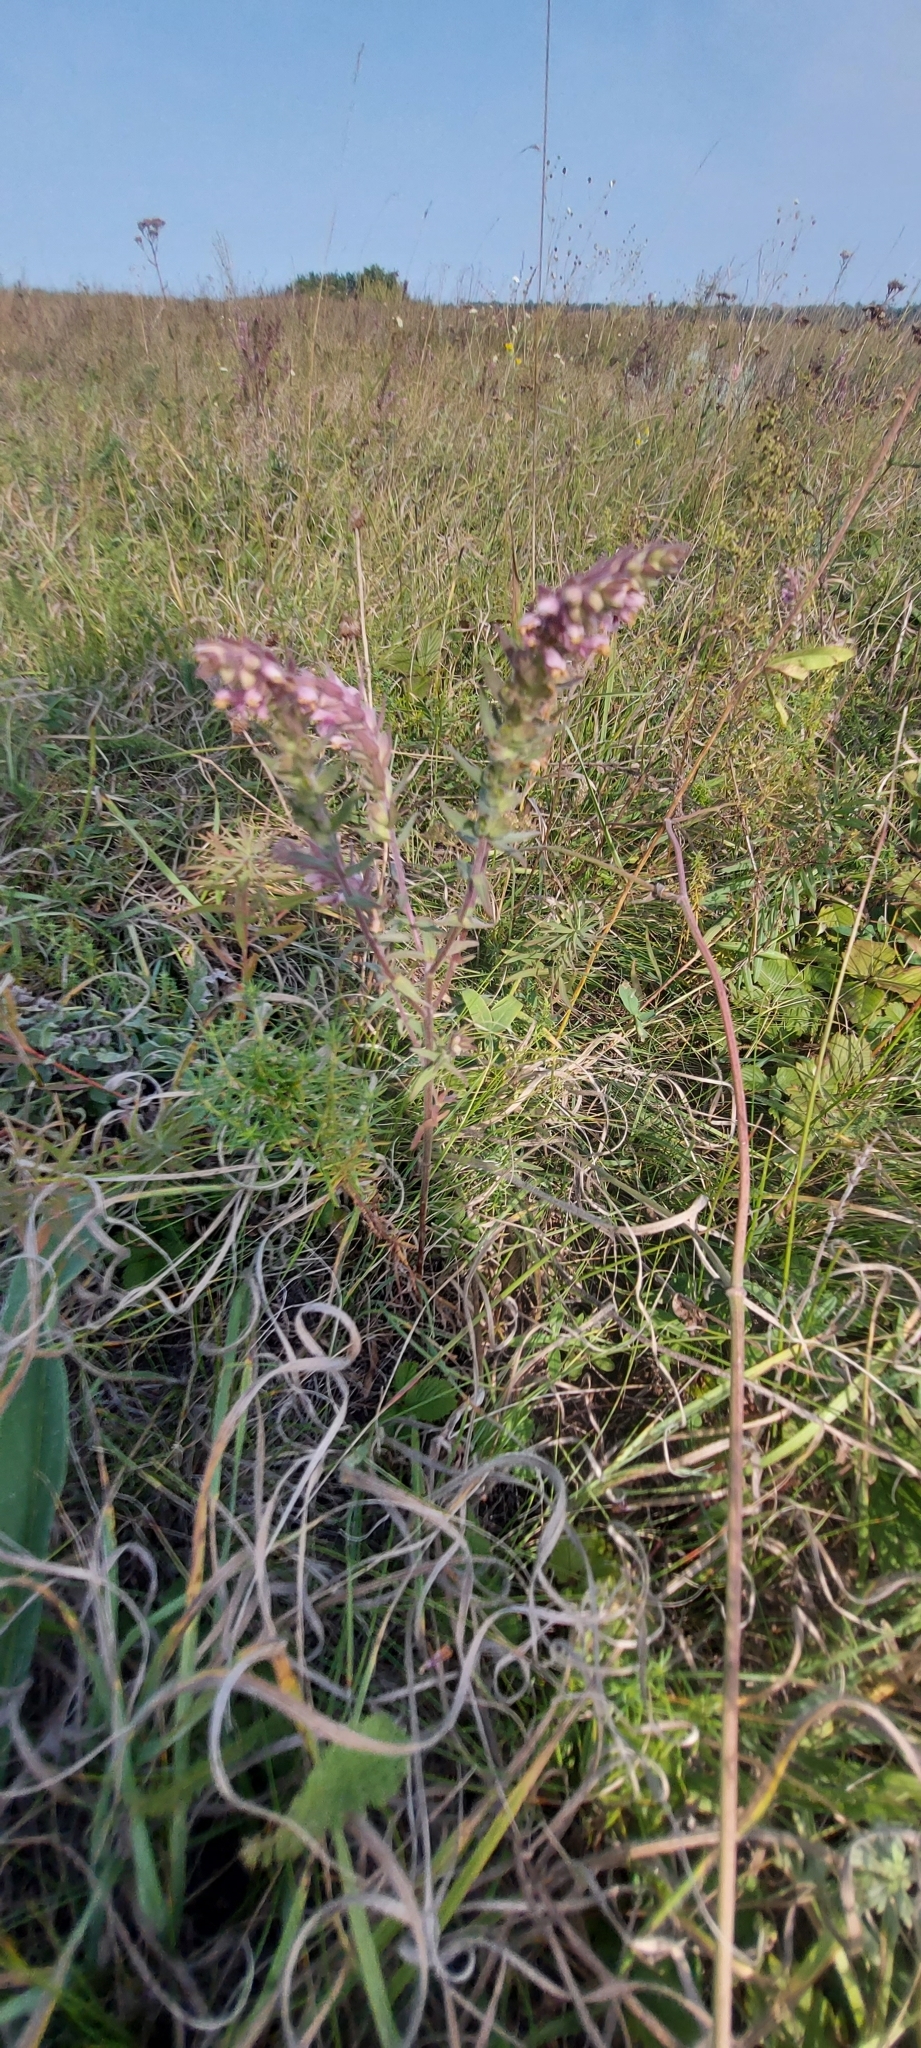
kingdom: Plantae
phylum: Tracheophyta
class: Magnoliopsida
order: Lamiales
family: Orobanchaceae
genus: Odontites
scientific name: Odontites vulgaris
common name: Broomrape
